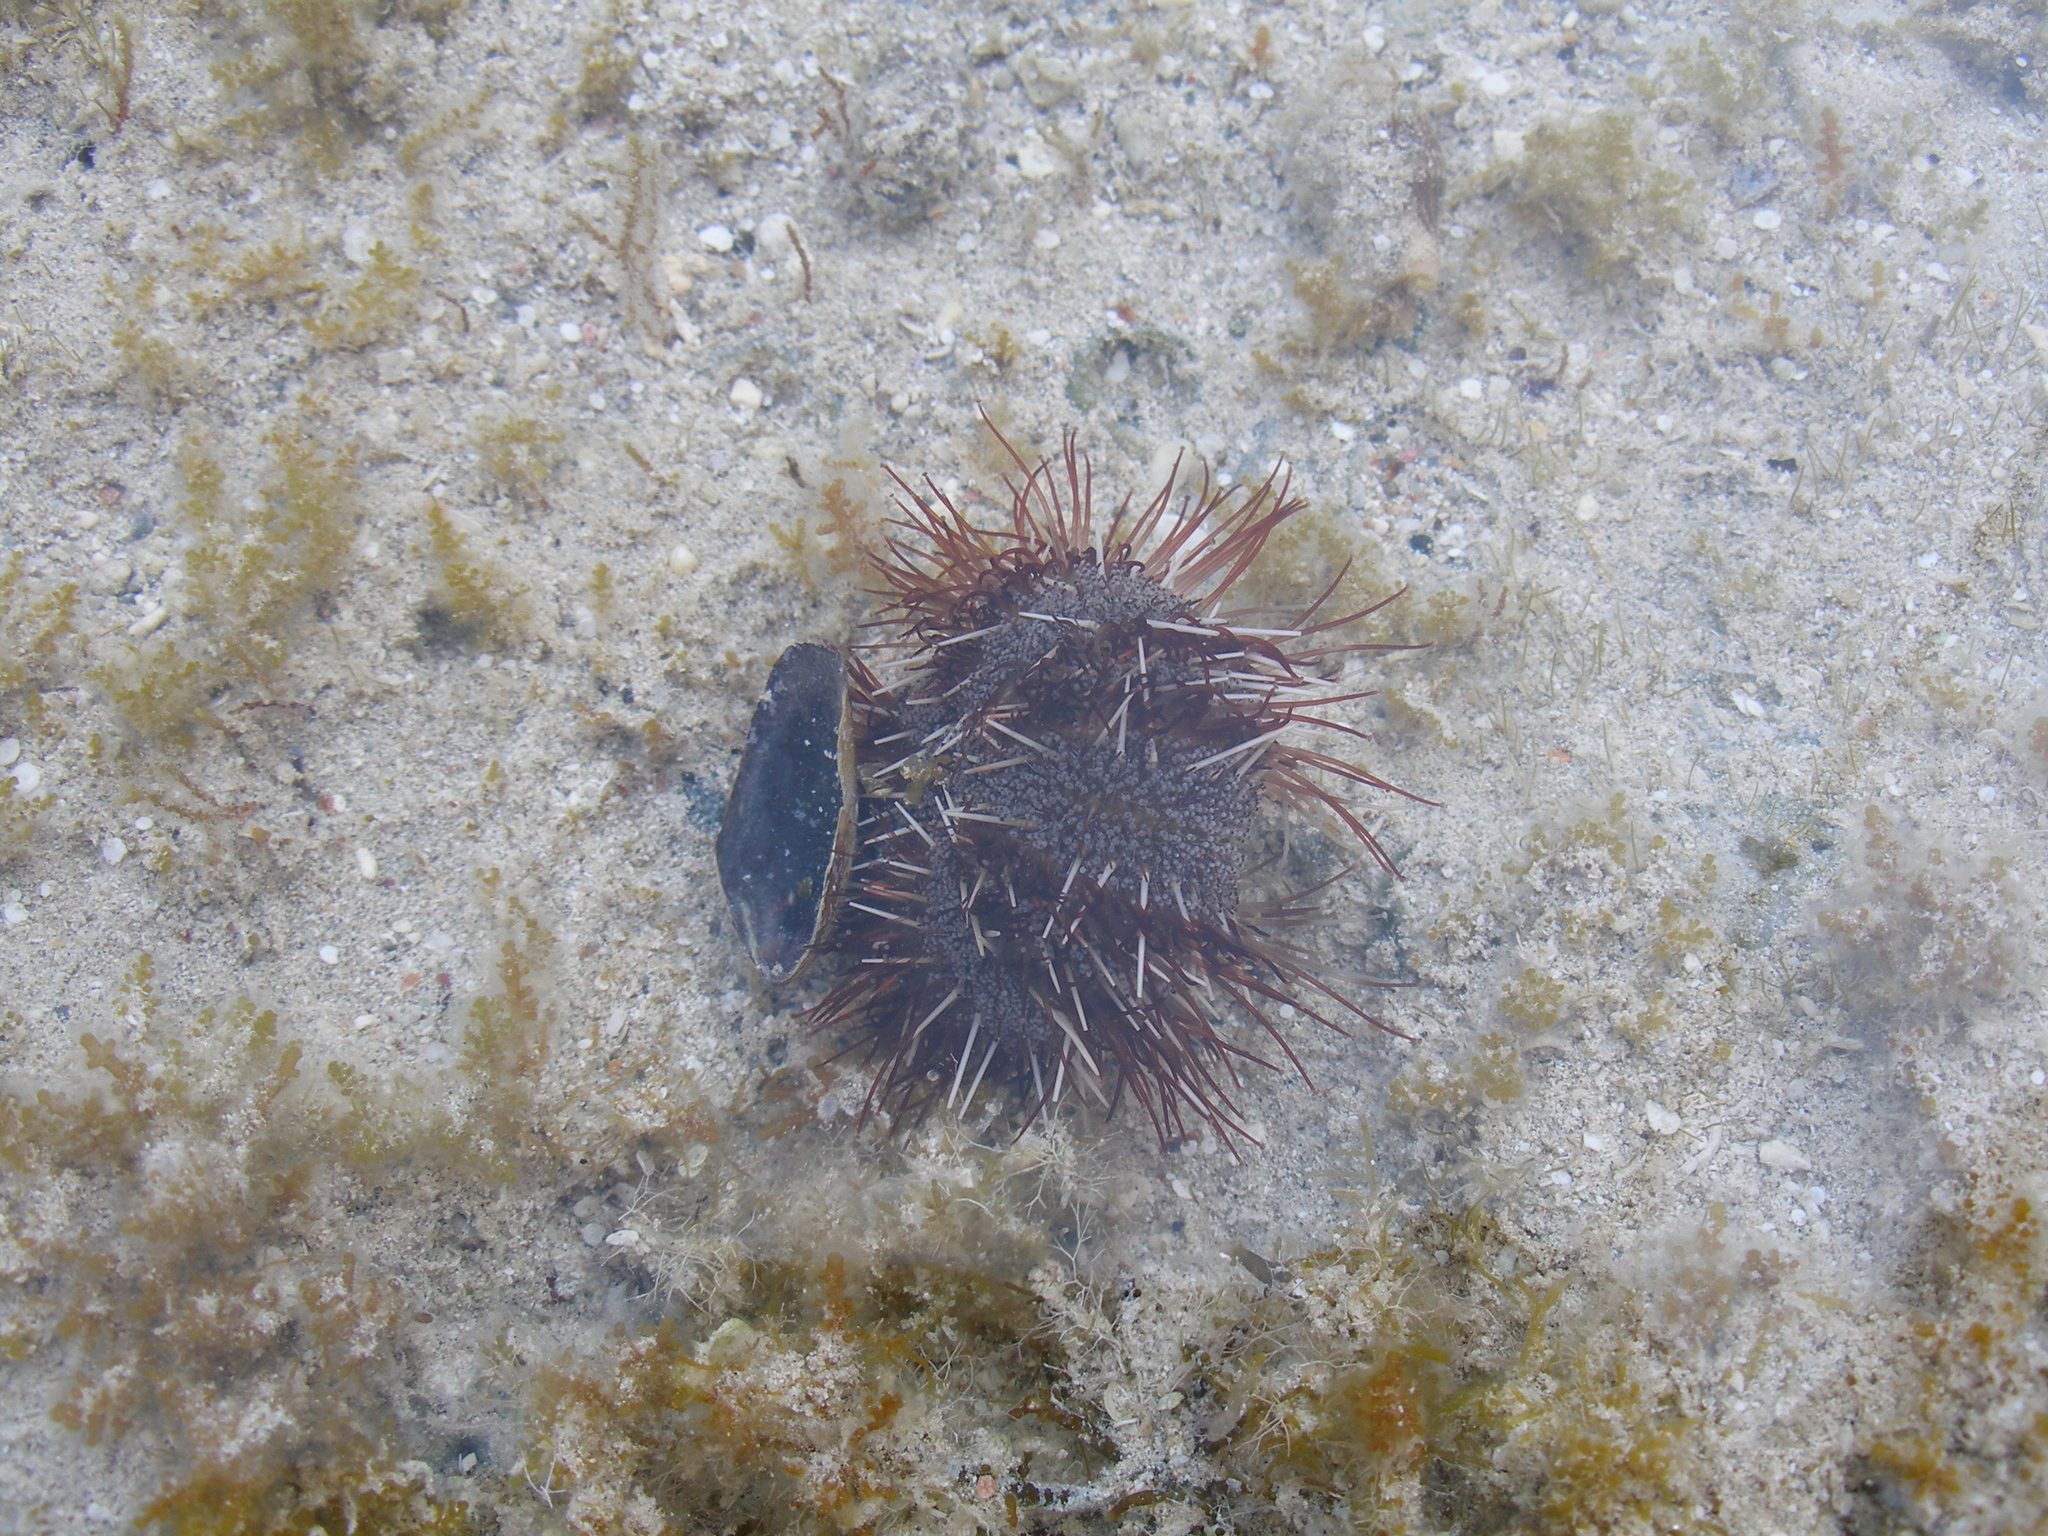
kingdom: Animalia
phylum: Echinodermata
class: Echinoidea
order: Camarodonta
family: Toxopneustidae
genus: Tripneustes
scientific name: Tripneustes gratilla
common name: Bischofsmützenseeigel
